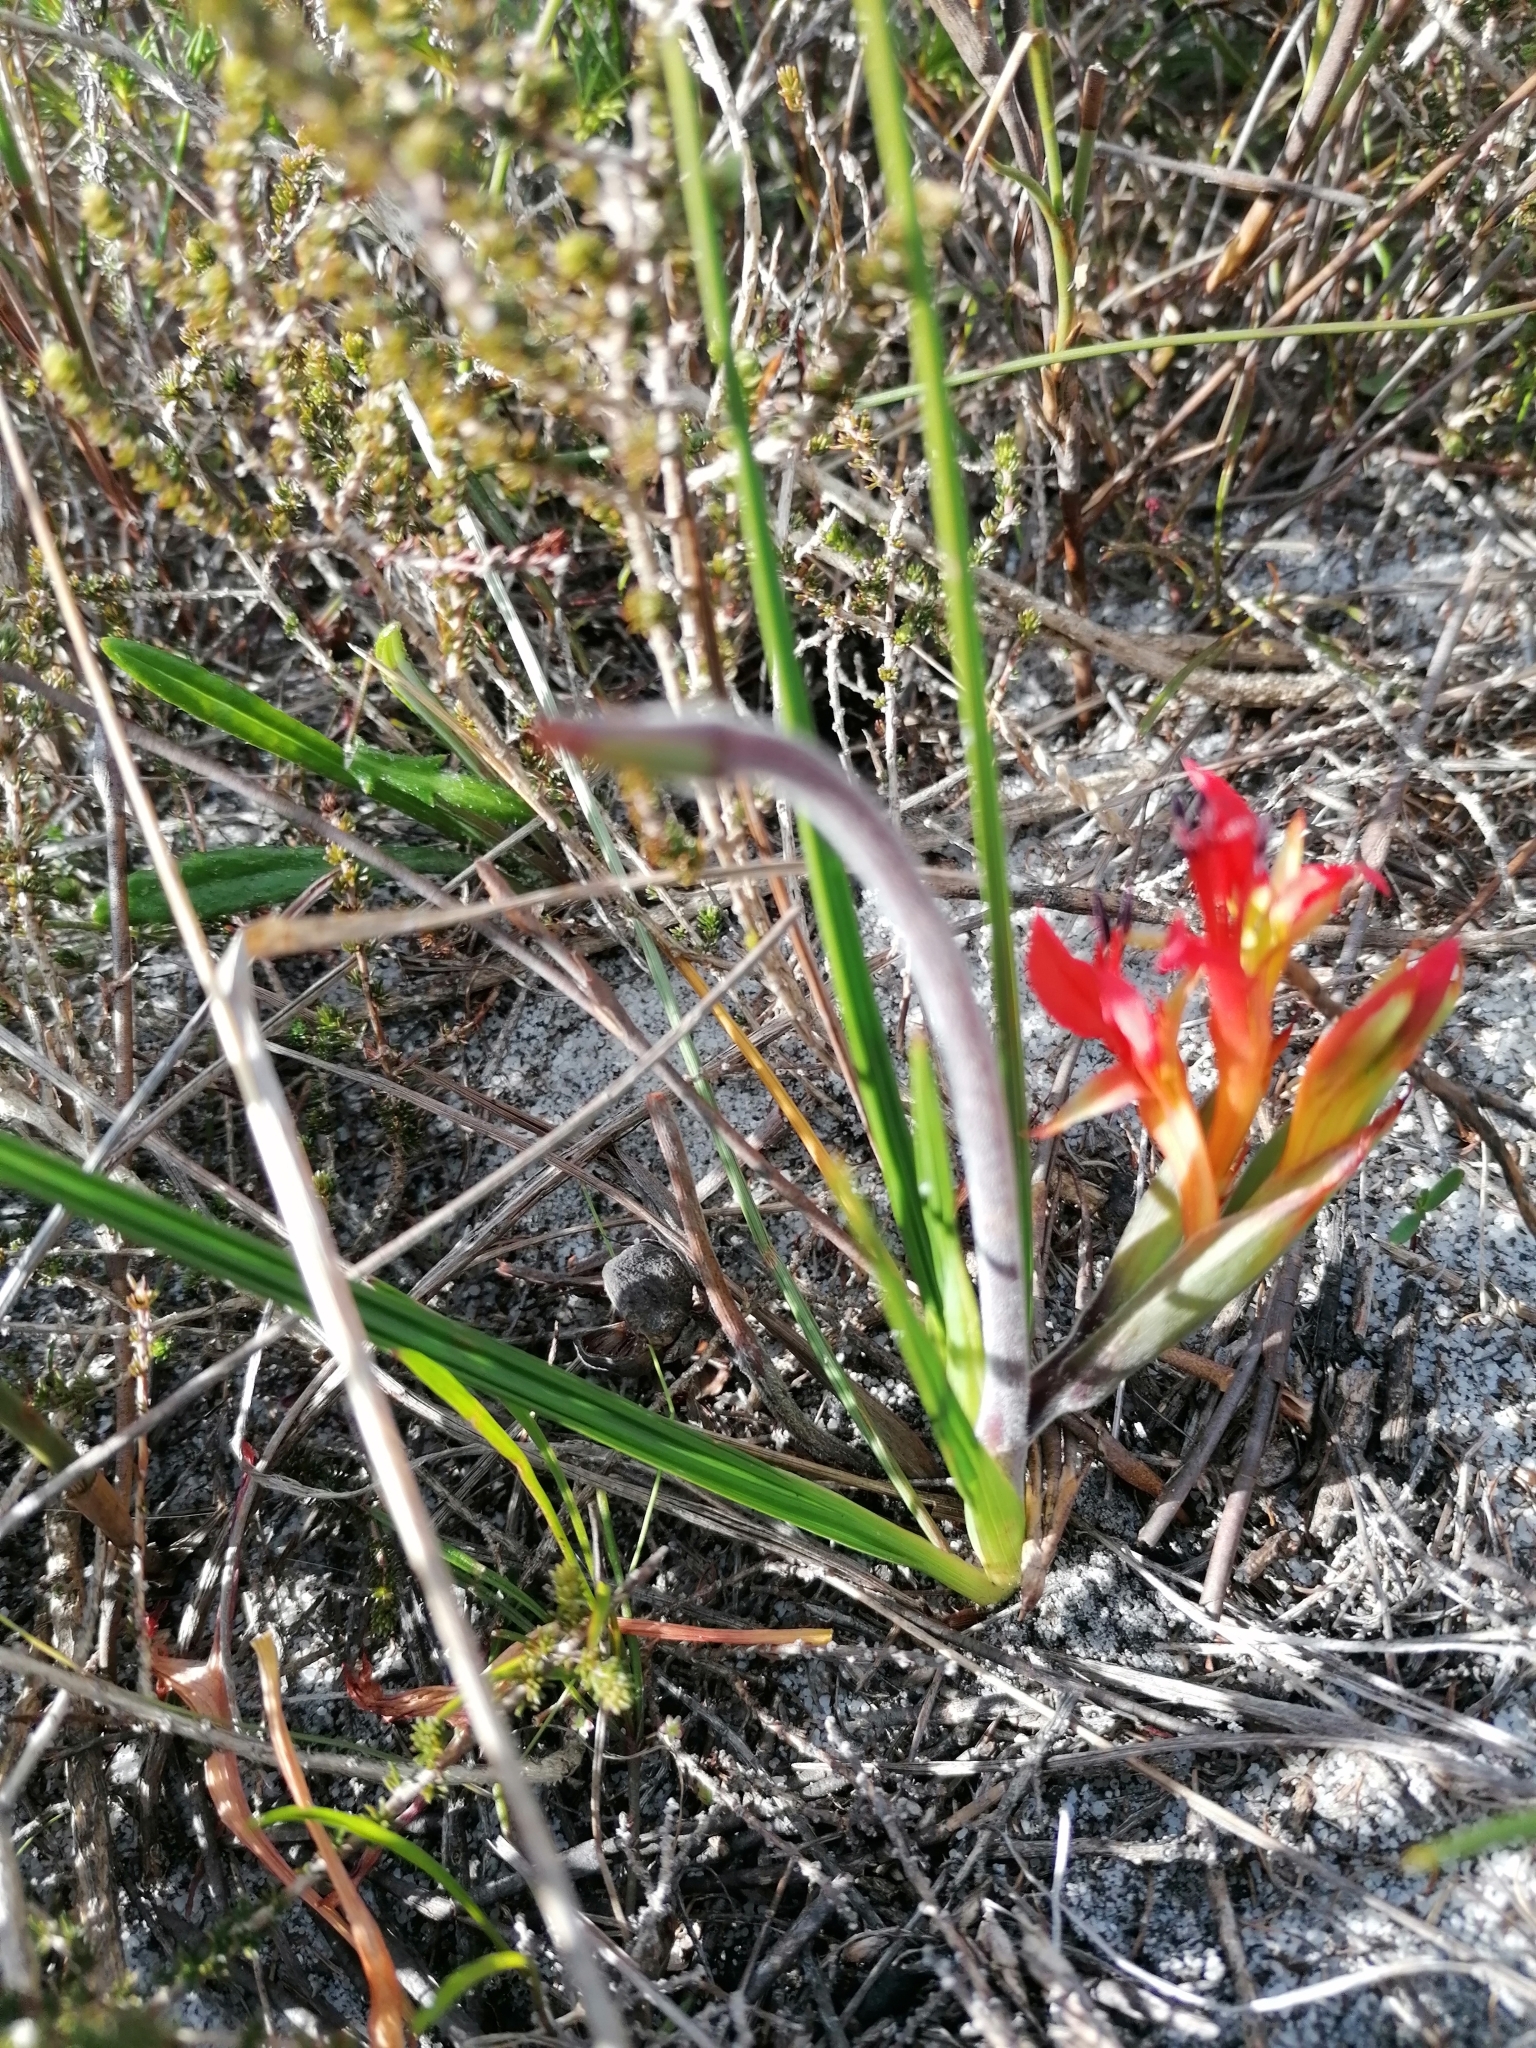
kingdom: Plantae
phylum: Tracheophyta
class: Liliopsida
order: Asparagales
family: Iridaceae
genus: Babiana
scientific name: Babiana ringens
